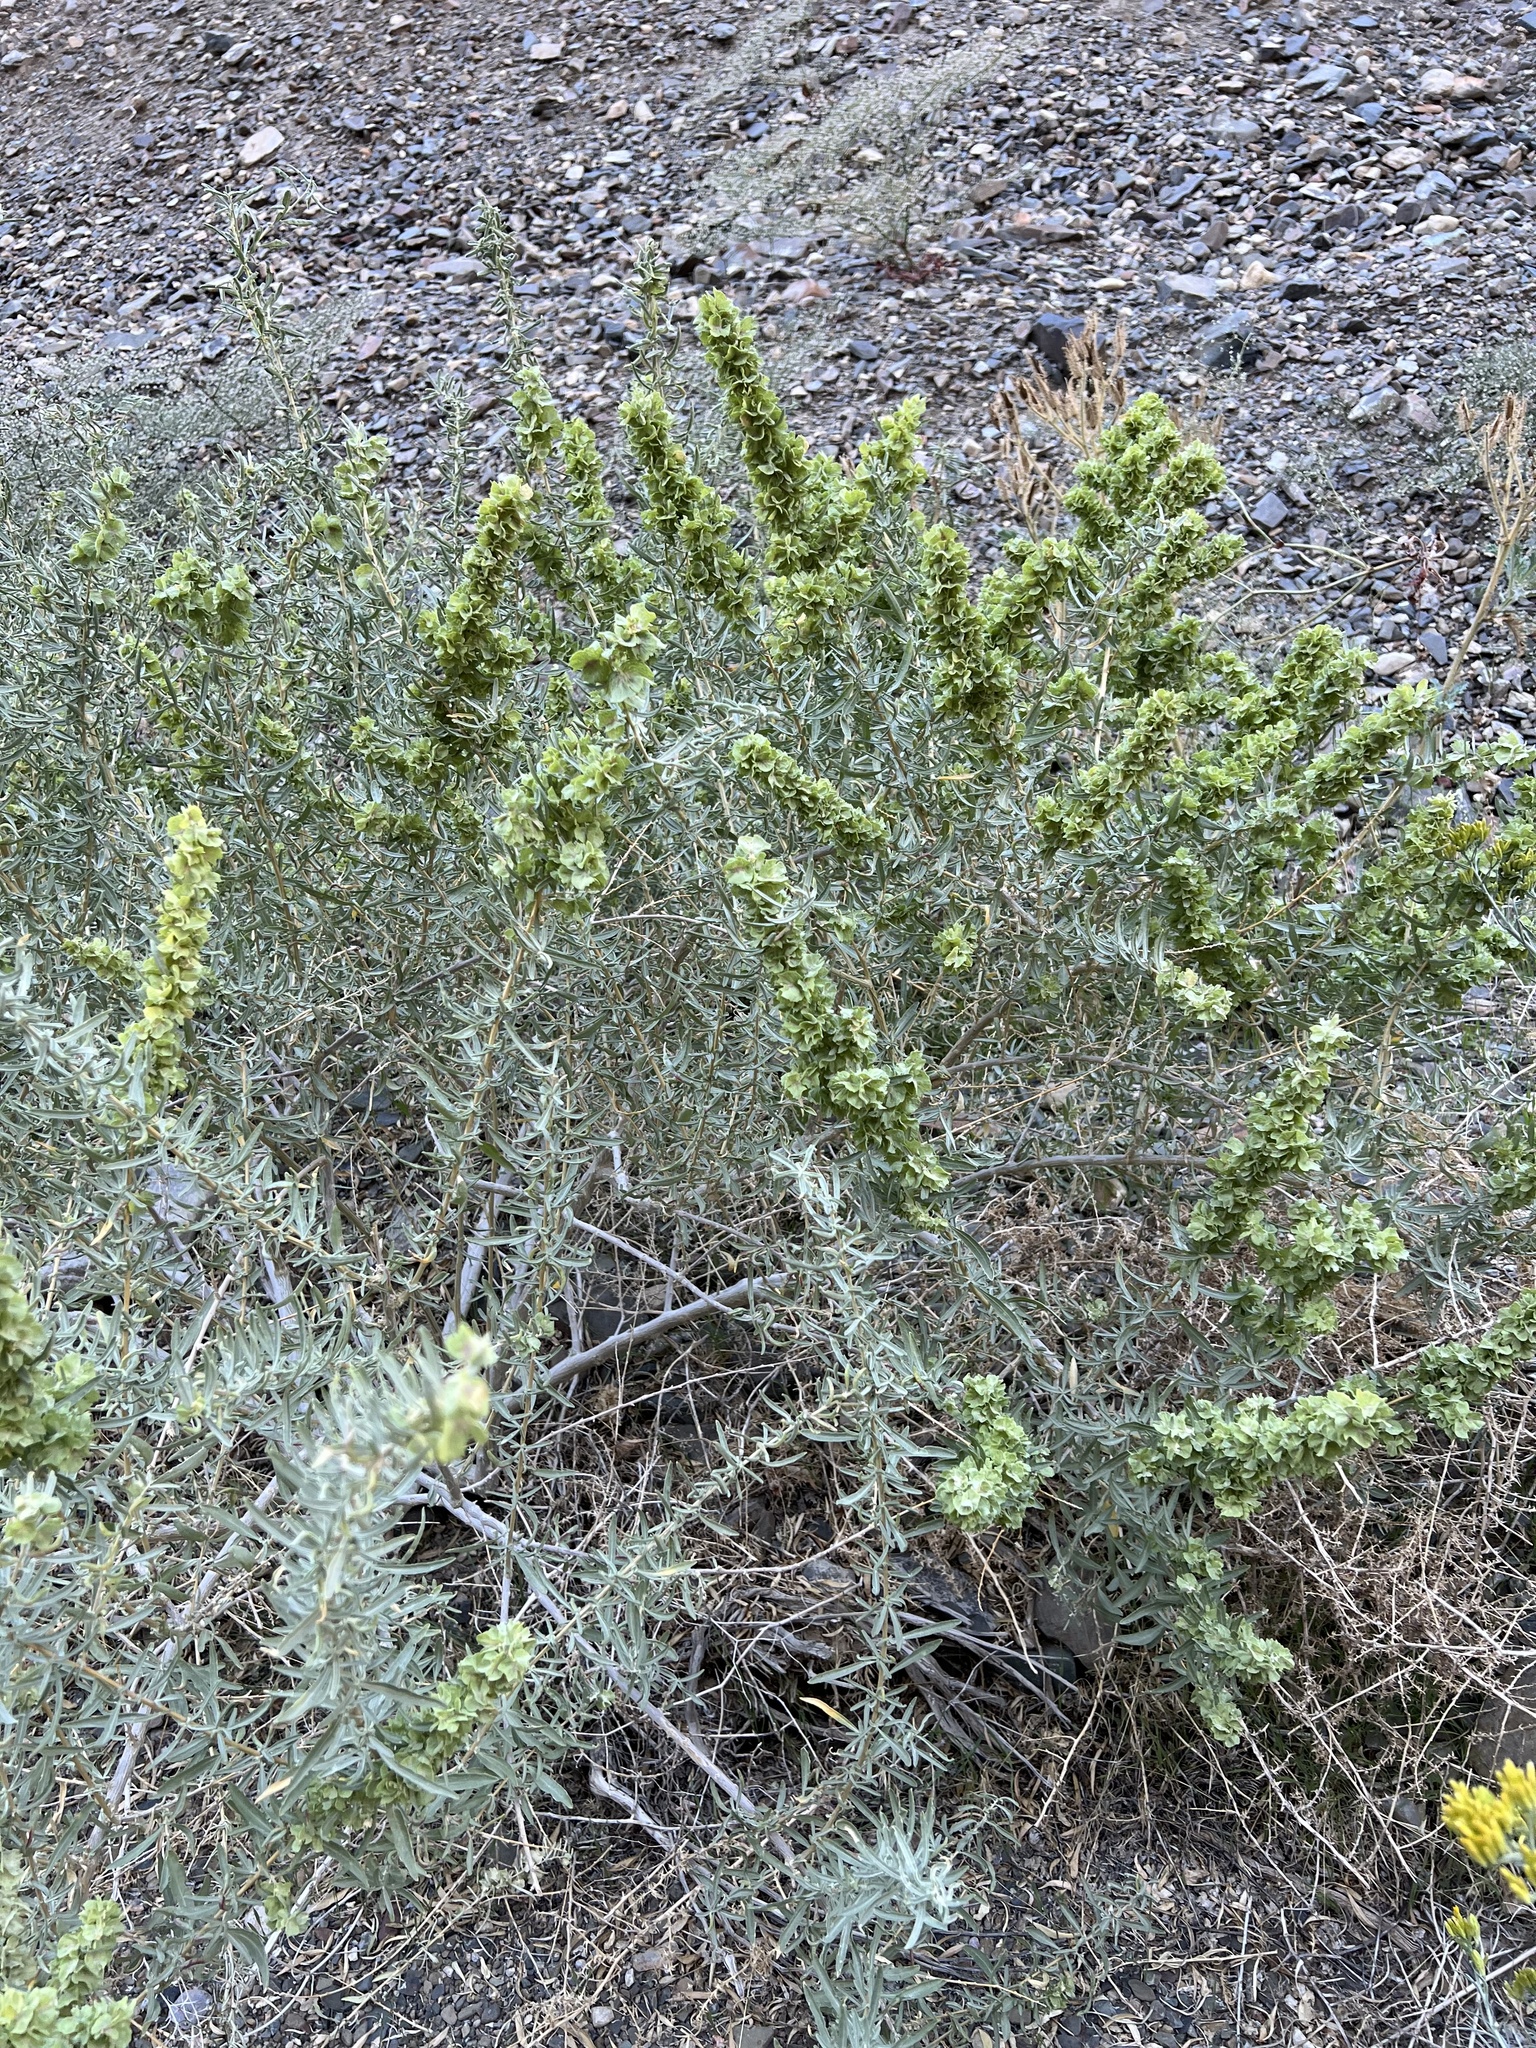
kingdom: Plantae
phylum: Tracheophyta
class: Magnoliopsida
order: Caryophyllales
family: Amaranthaceae
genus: Atriplex
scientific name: Atriplex canescens
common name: Four-wing saltbush
